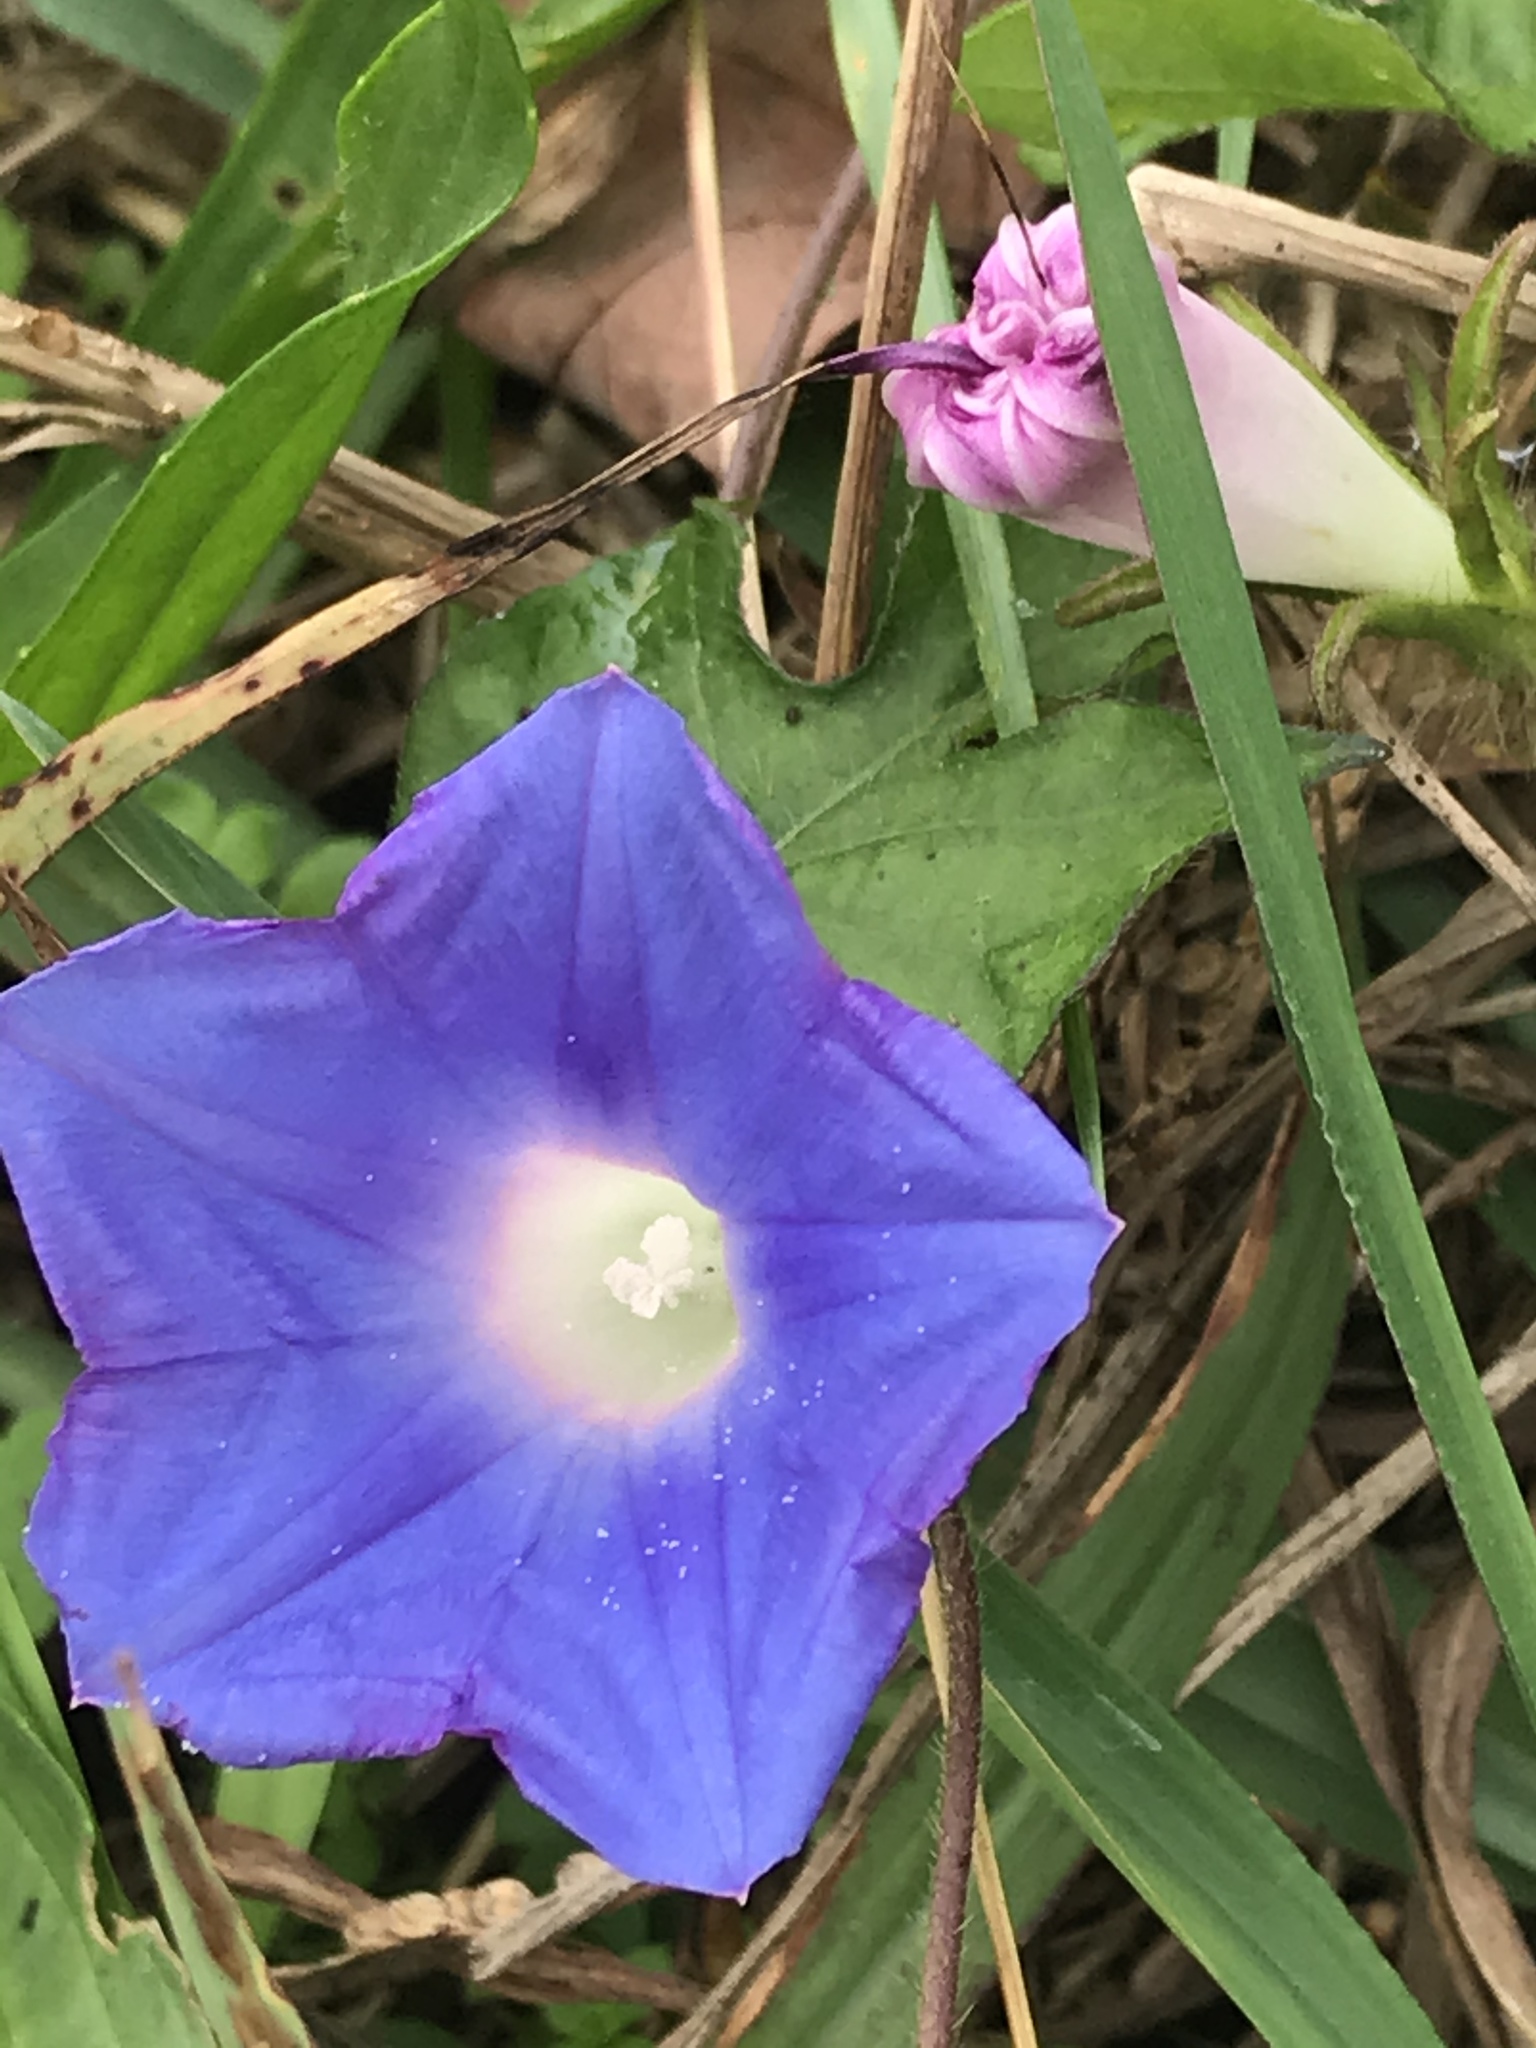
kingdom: Plantae
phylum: Tracheophyta
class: Magnoliopsida
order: Solanales
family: Convolvulaceae
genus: Ipomoea
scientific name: Ipomoea hederacea
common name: Ivy-leaved morning-glory
